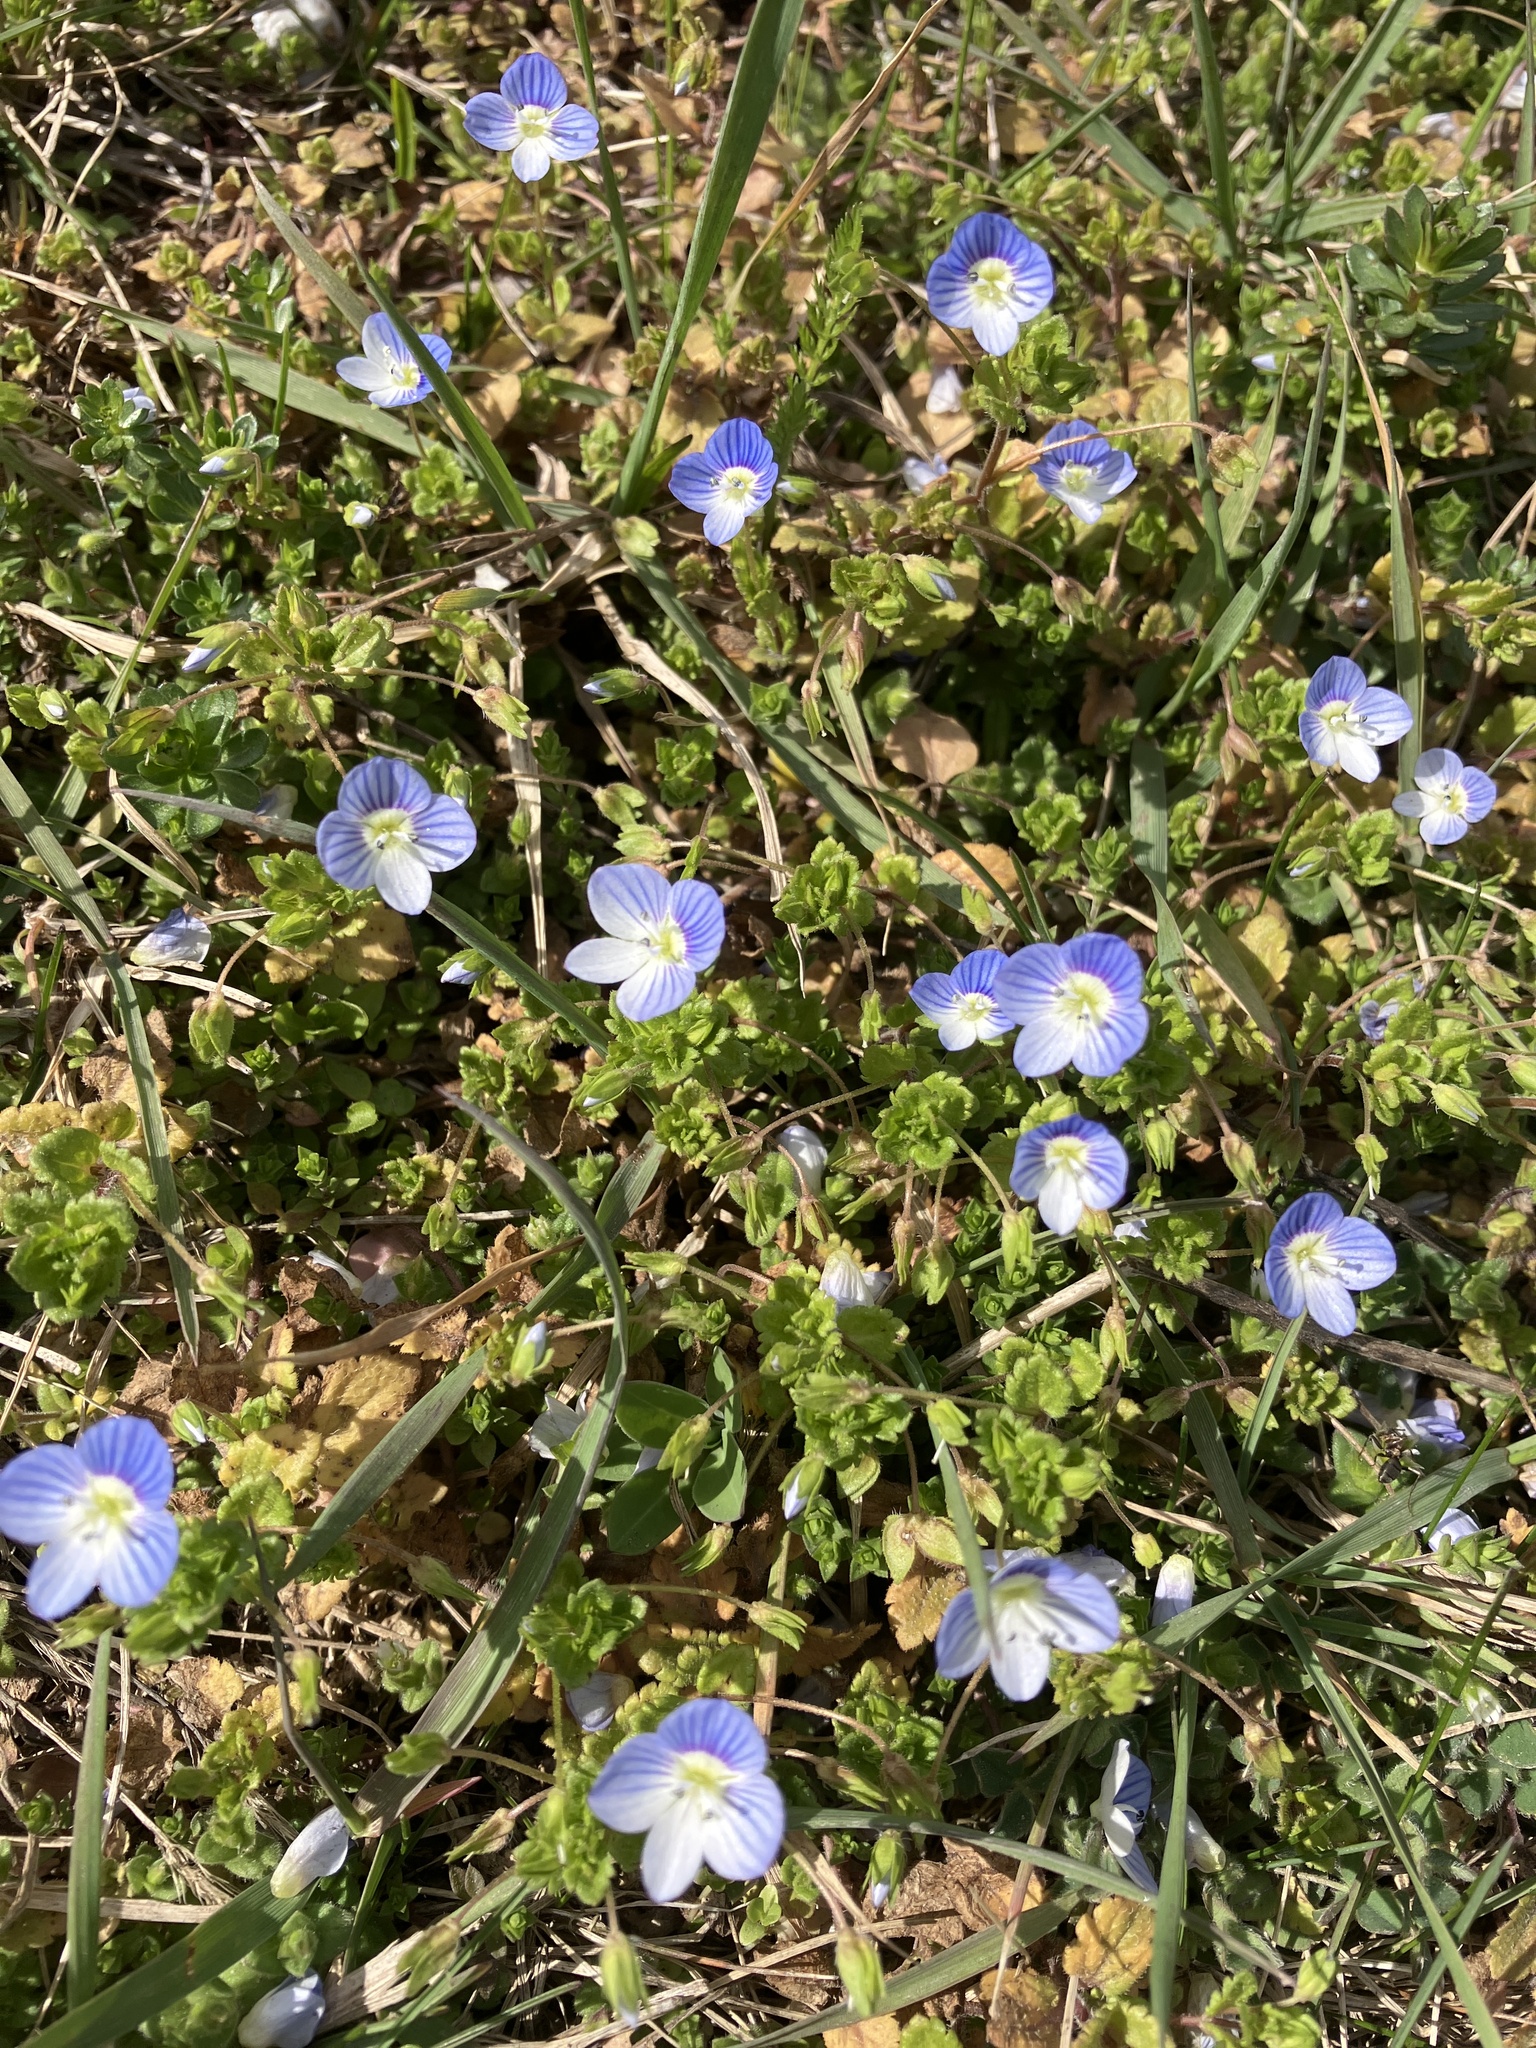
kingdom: Plantae
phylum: Tracheophyta
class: Magnoliopsida
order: Lamiales
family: Plantaginaceae
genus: Veronica
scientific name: Veronica persica
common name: Common field-speedwell
